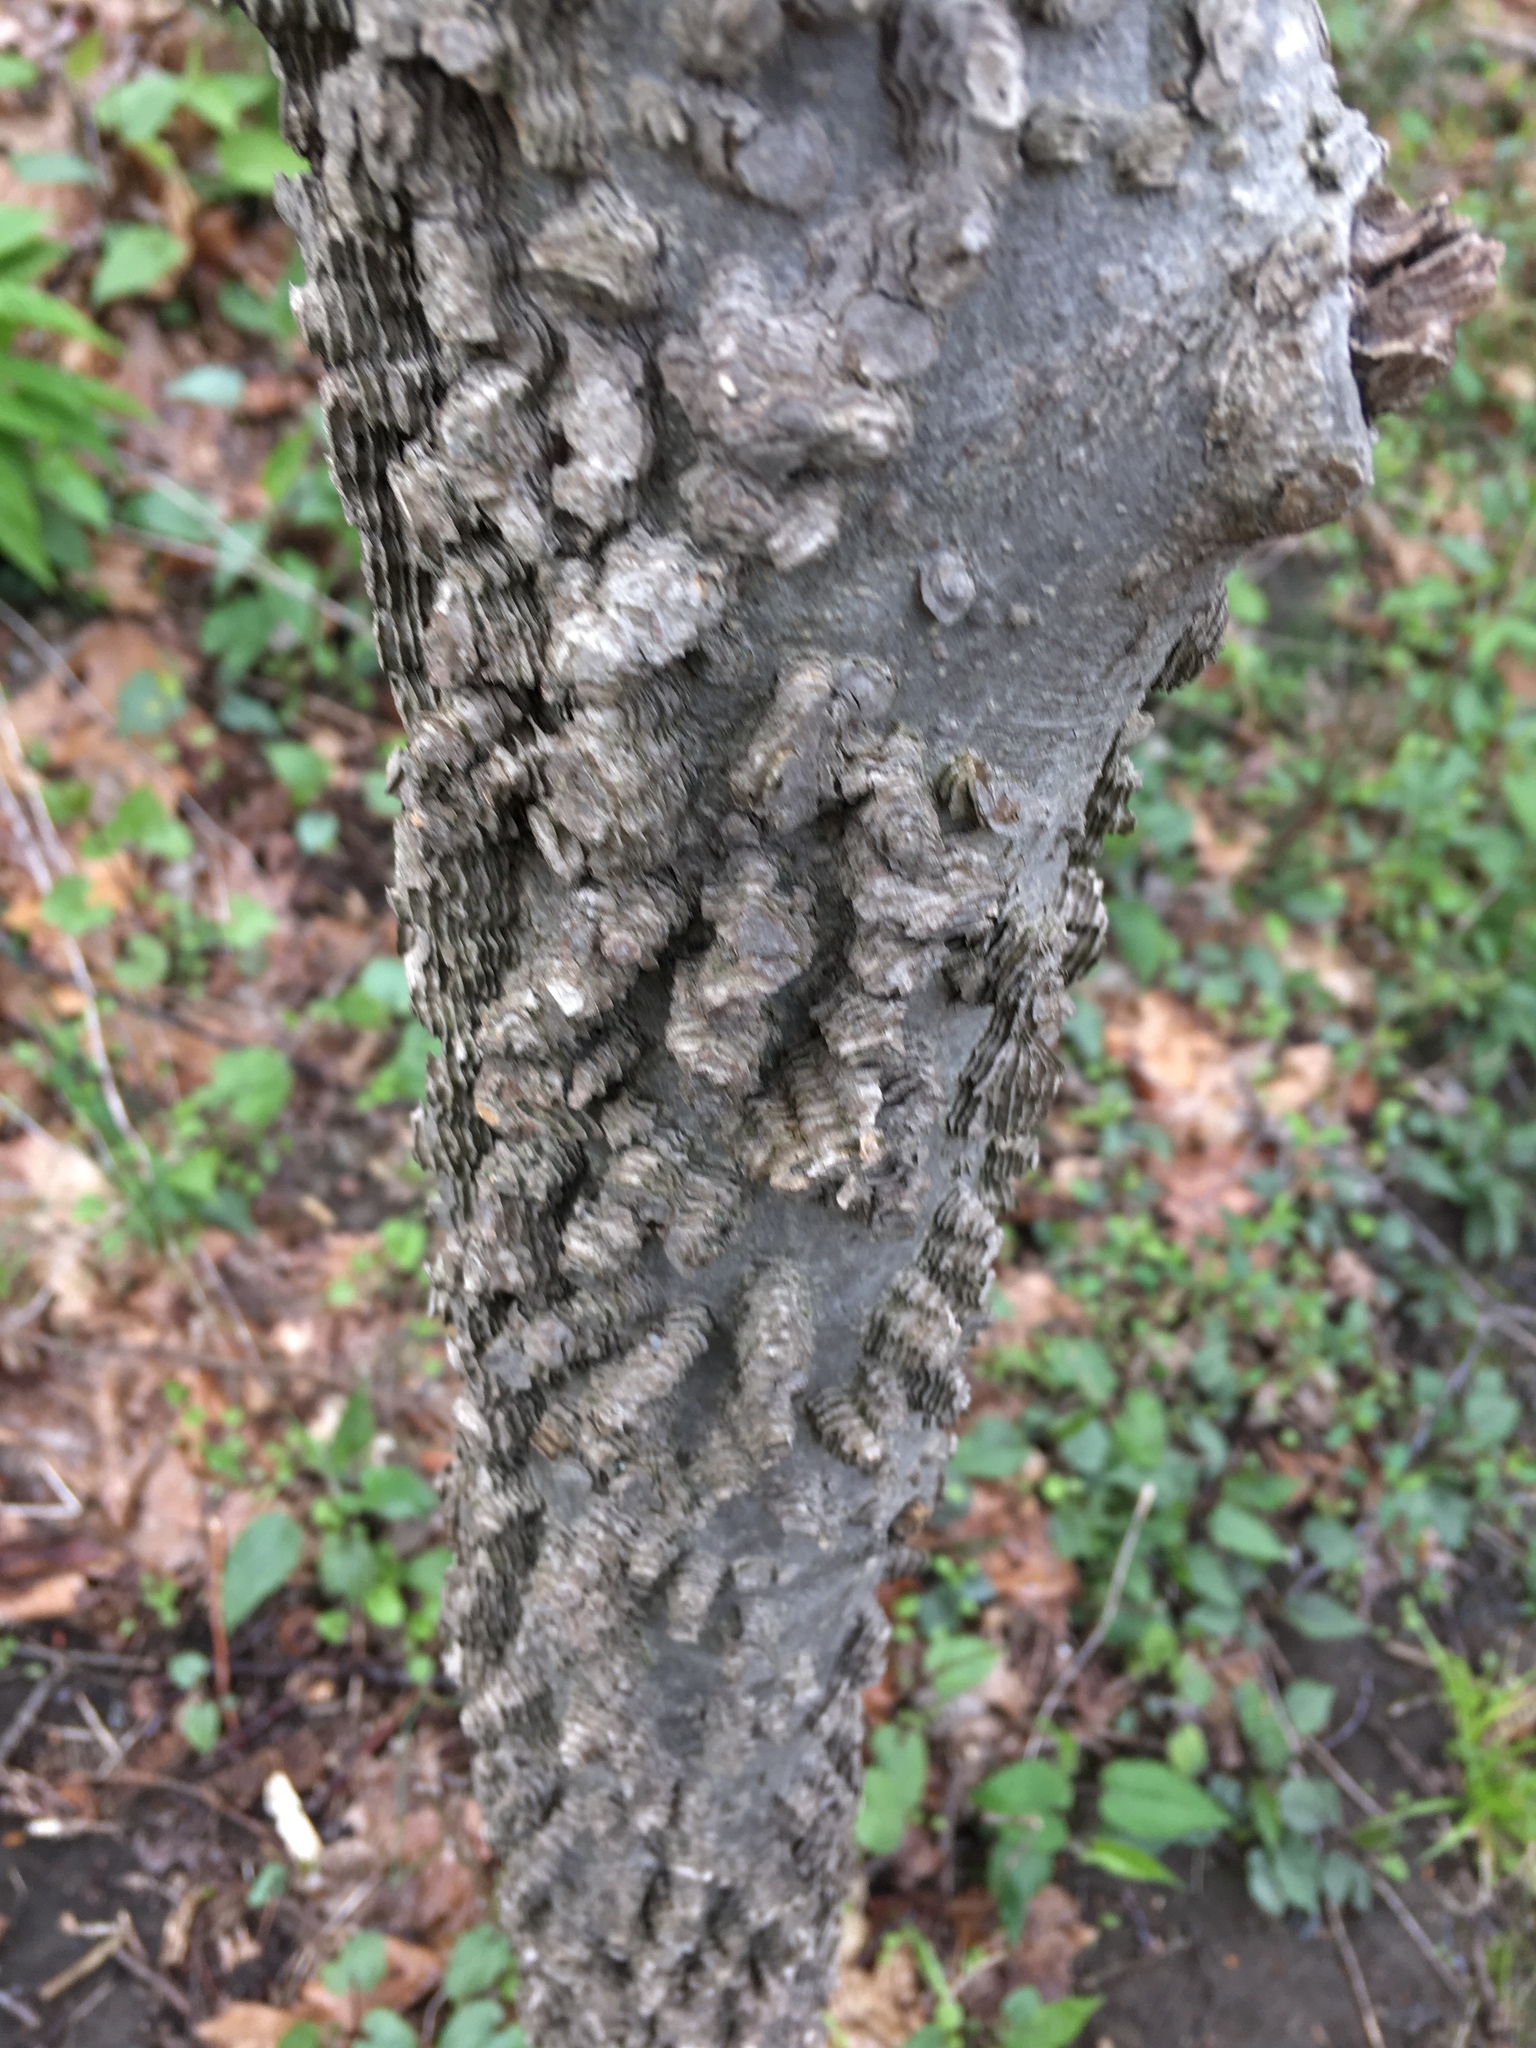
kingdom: Plantae
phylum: Tracheophyta
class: Magnoliopsida
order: Rosales
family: Cannabaceae
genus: Celtis
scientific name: Celtis occidentalis
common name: Common hackberry
